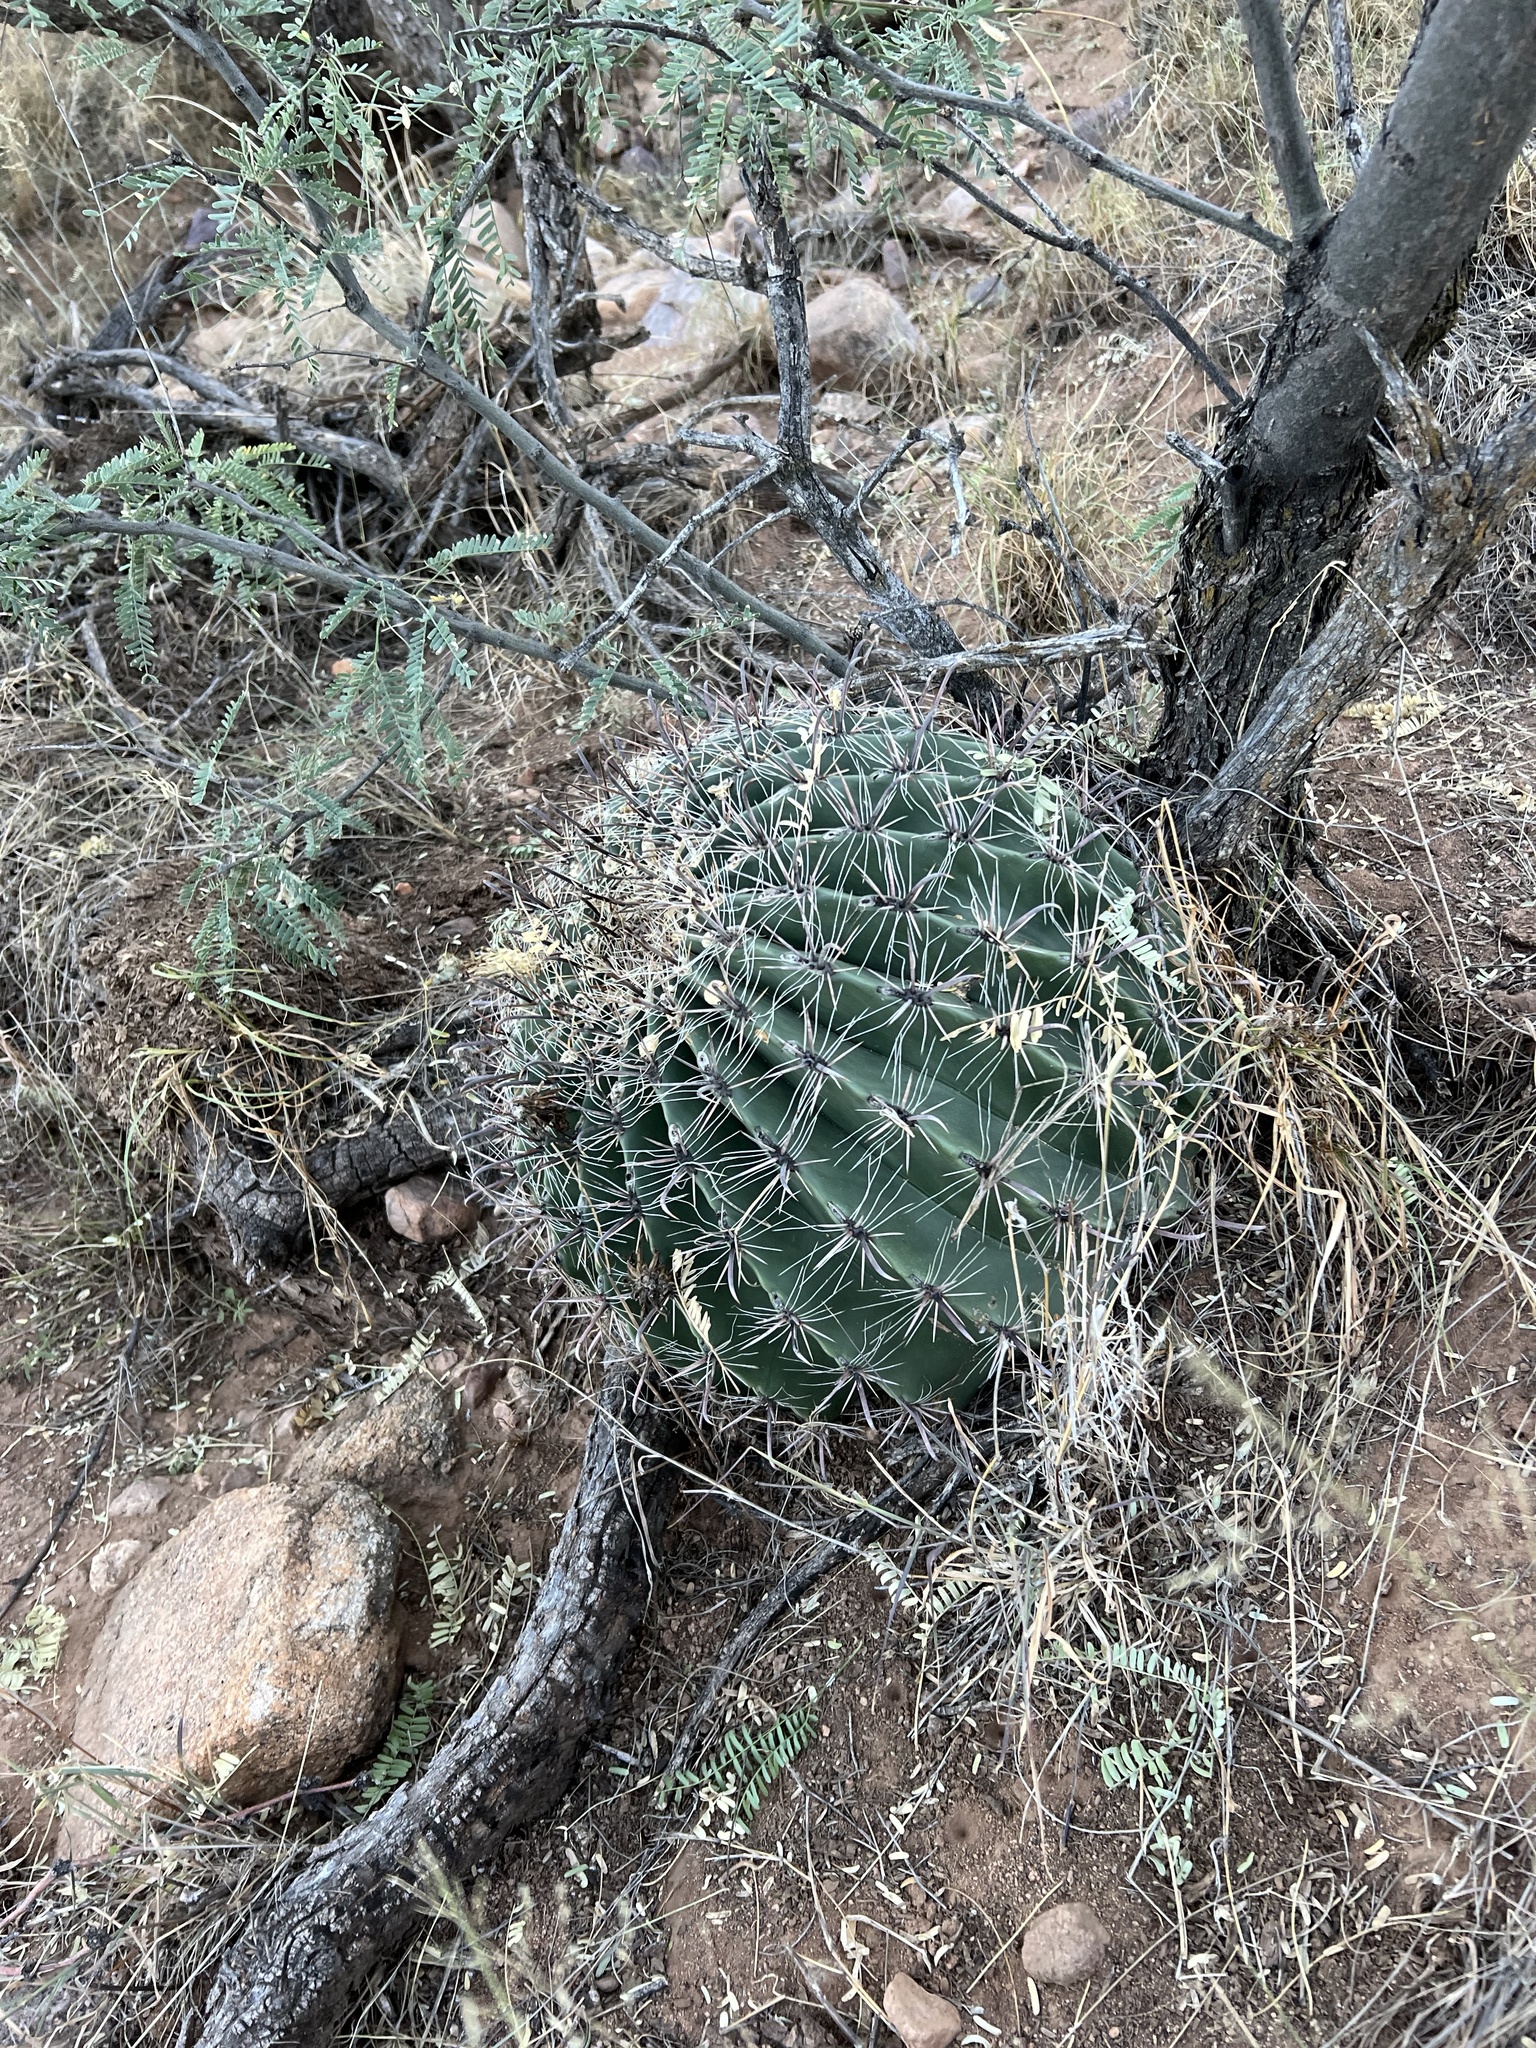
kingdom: Plantae
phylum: Tracheophyta
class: Magnoliopsida
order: Caryophyllales
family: Cactaceae
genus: Ferocactus
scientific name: Ferocactus wislizeni
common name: Candy barrel cactus
